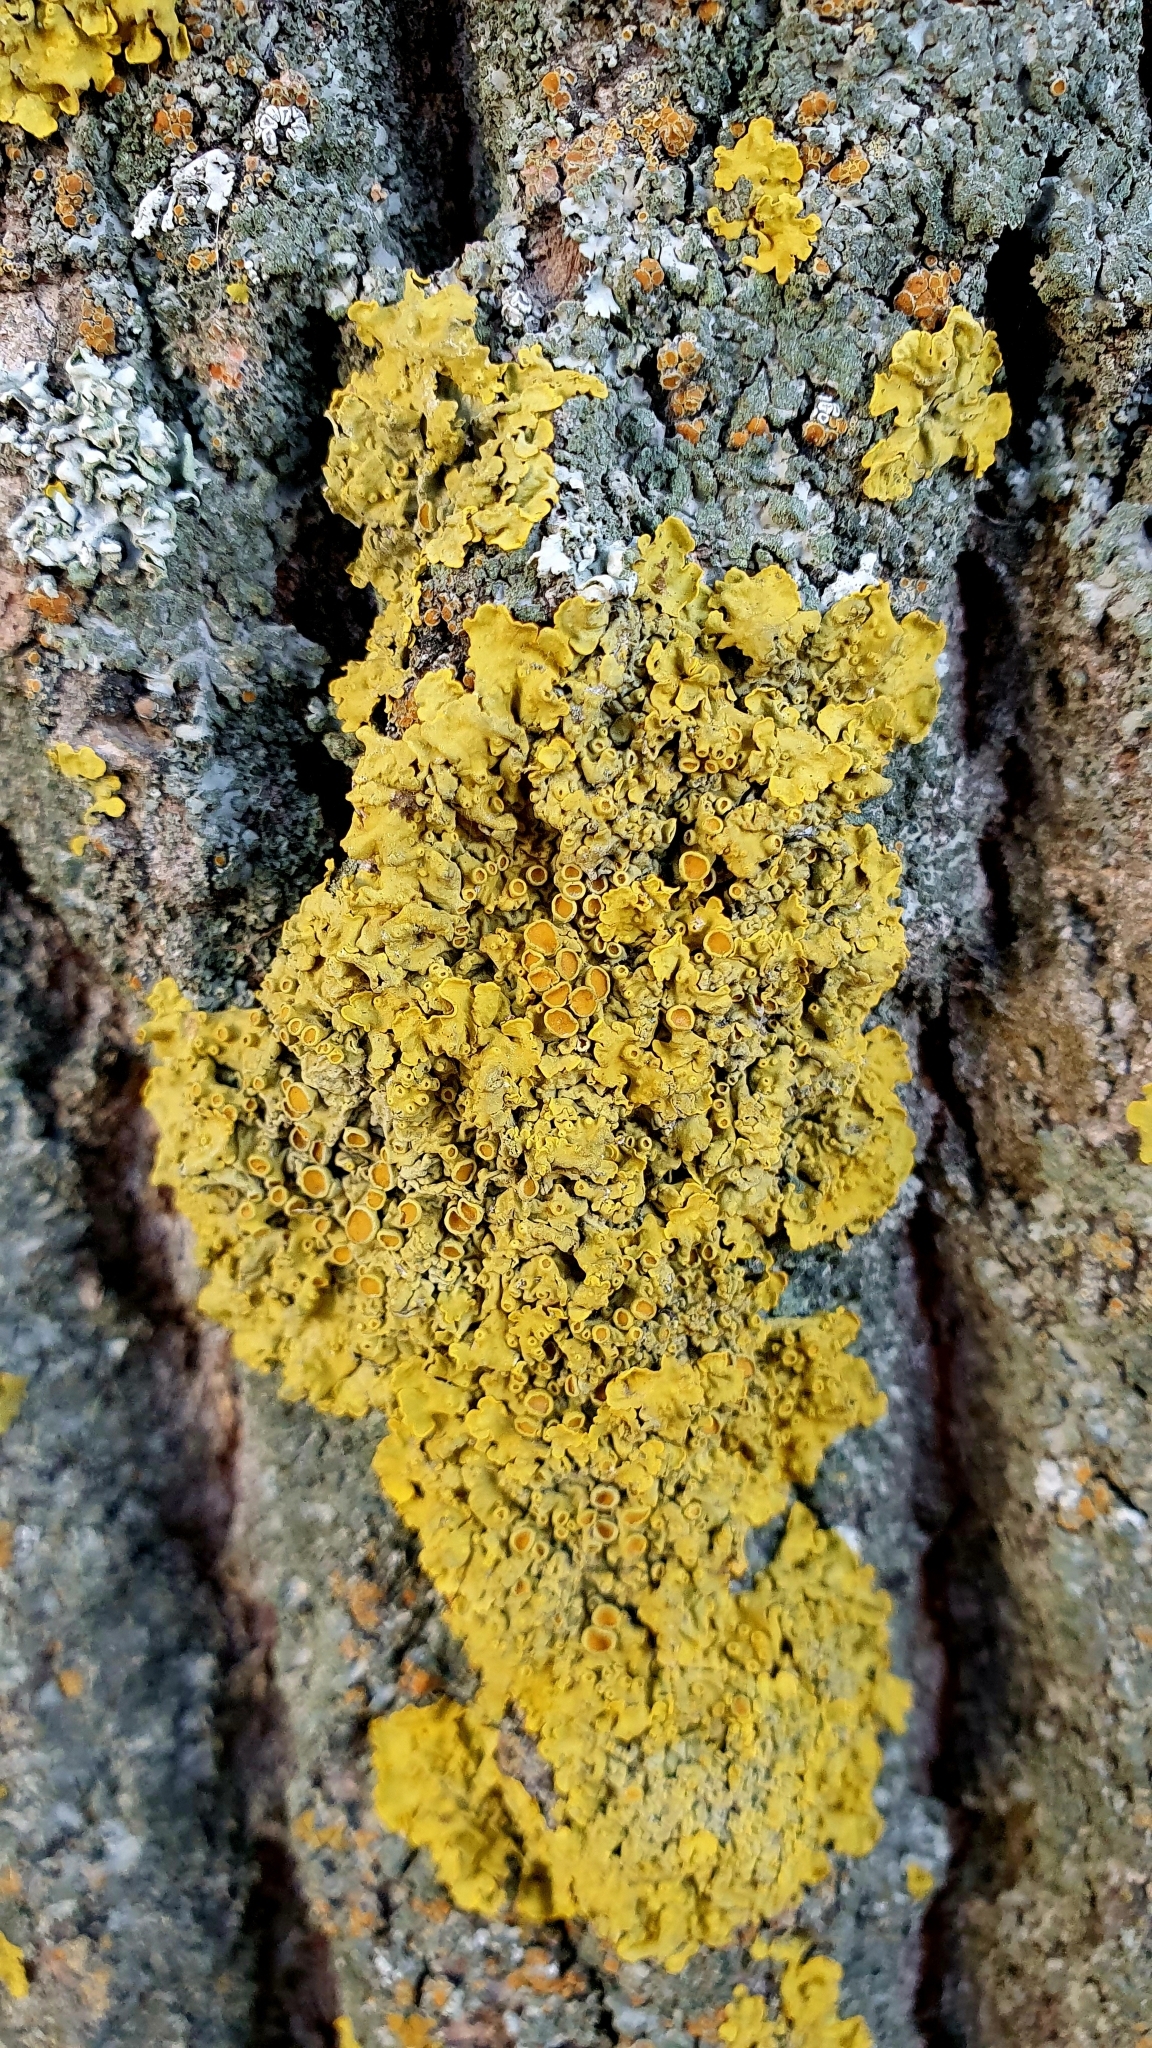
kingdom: Fungi
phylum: Ascomycota
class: Lecanoromycetes
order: Teloschistales
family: Teloschistaceae
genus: Xanthoria
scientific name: Xanthoria parietina
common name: Common orange lichen
